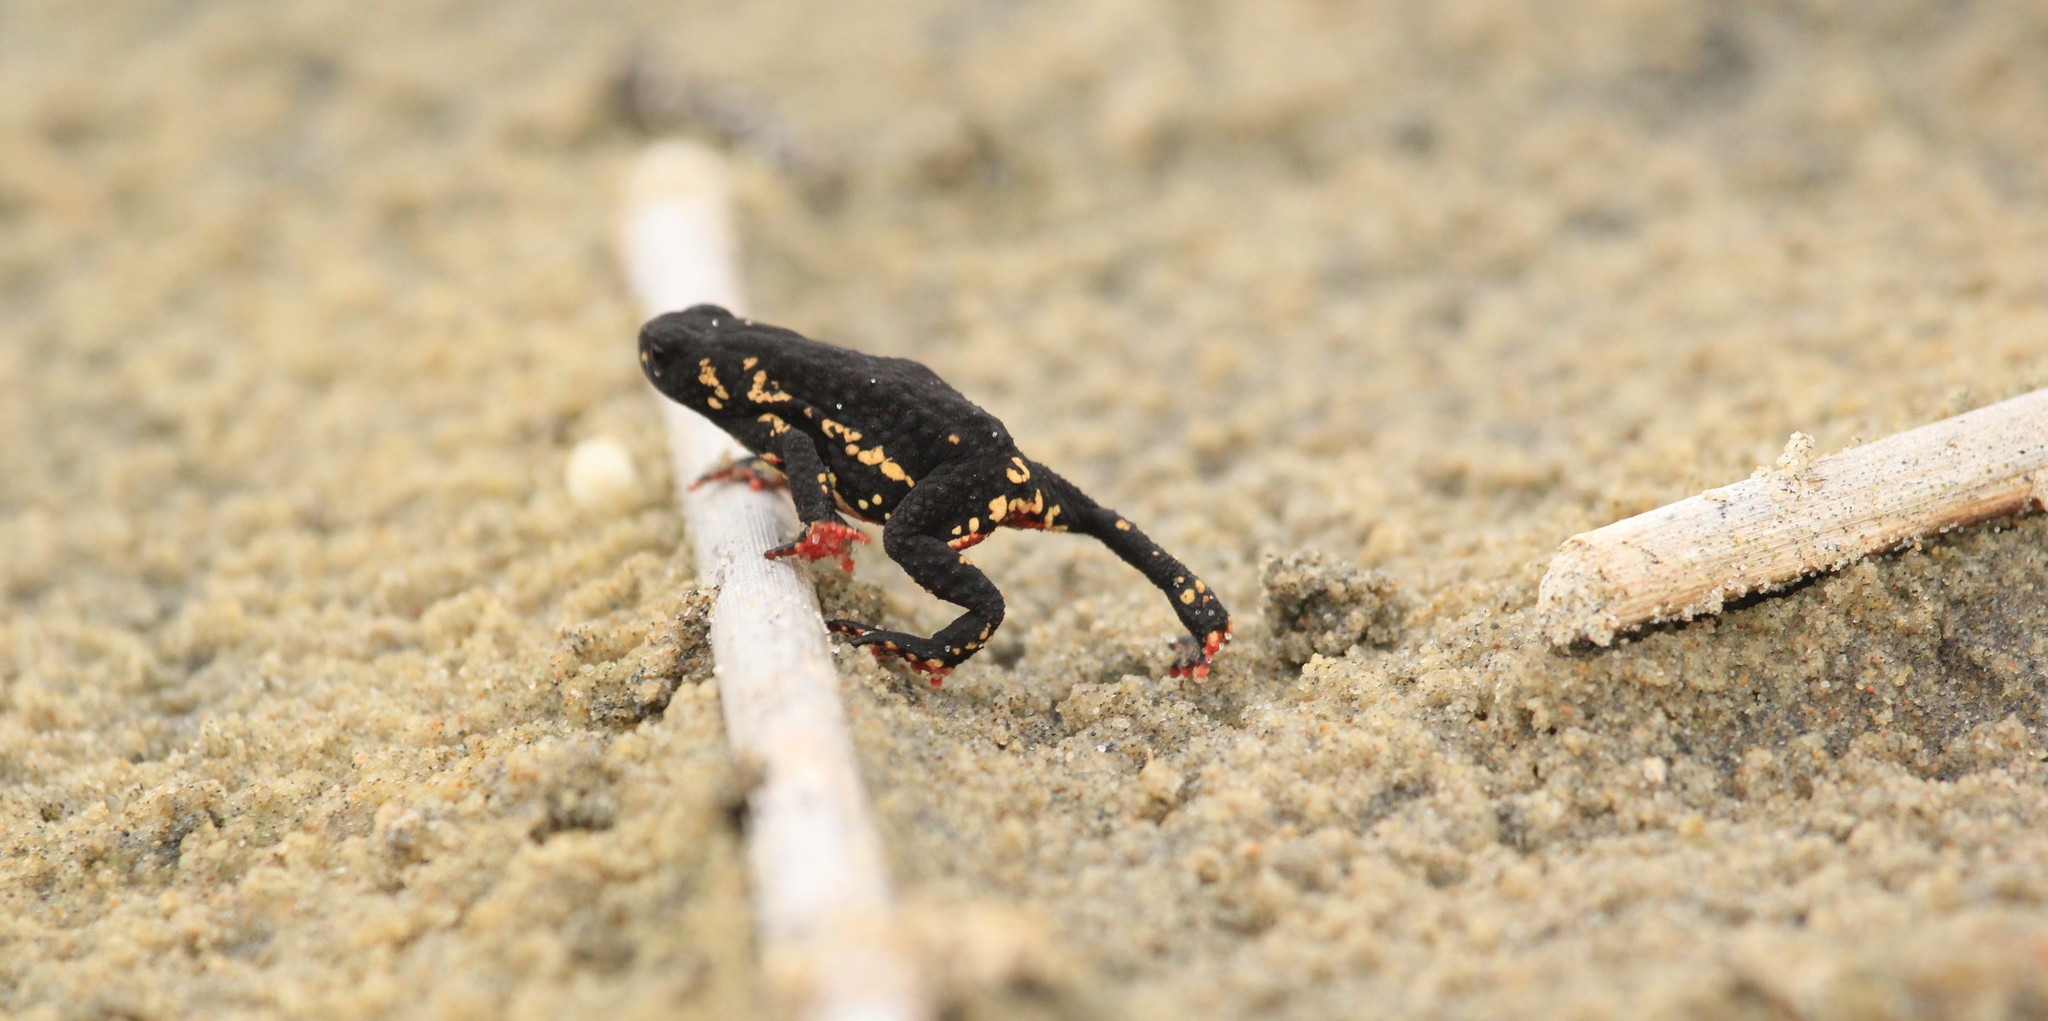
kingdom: Animalia
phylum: Chordata
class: Amphibia
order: Anura
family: Bufonidae
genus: Melanophryniscus
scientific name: Melanophryniscus montevidensis
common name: Montevideo redbelly toad
